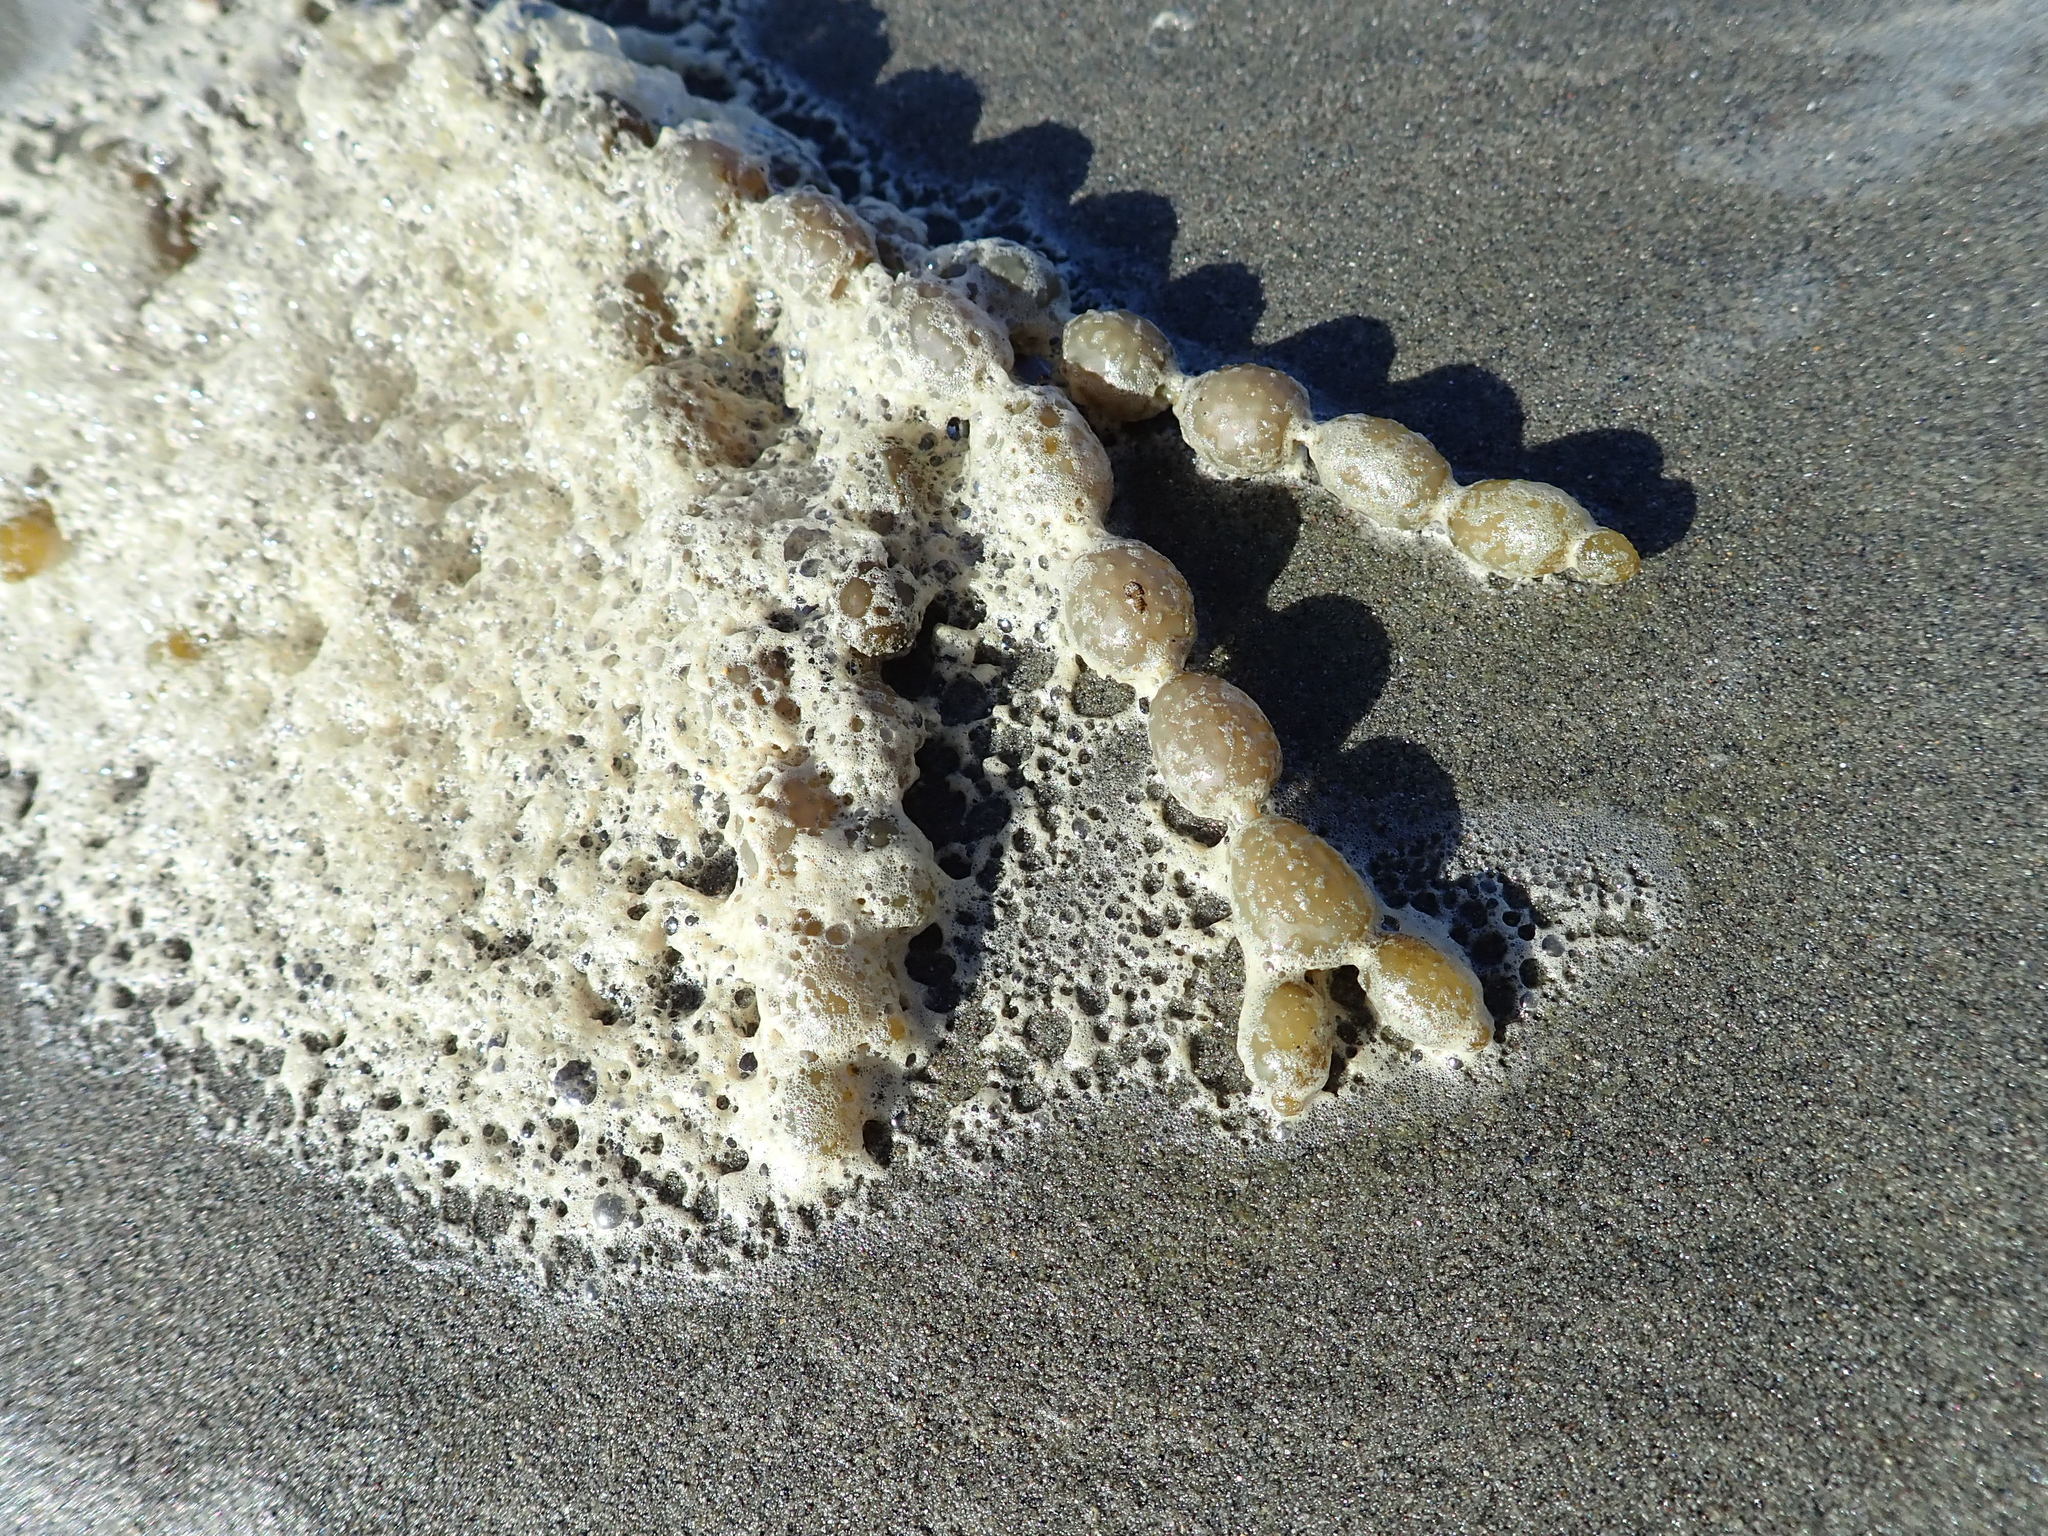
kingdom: Chromista
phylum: Ochrophyta
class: Phaeophyceae
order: Fucales
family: Hormosiraceae
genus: Hormosira
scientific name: Hormosira banksii
